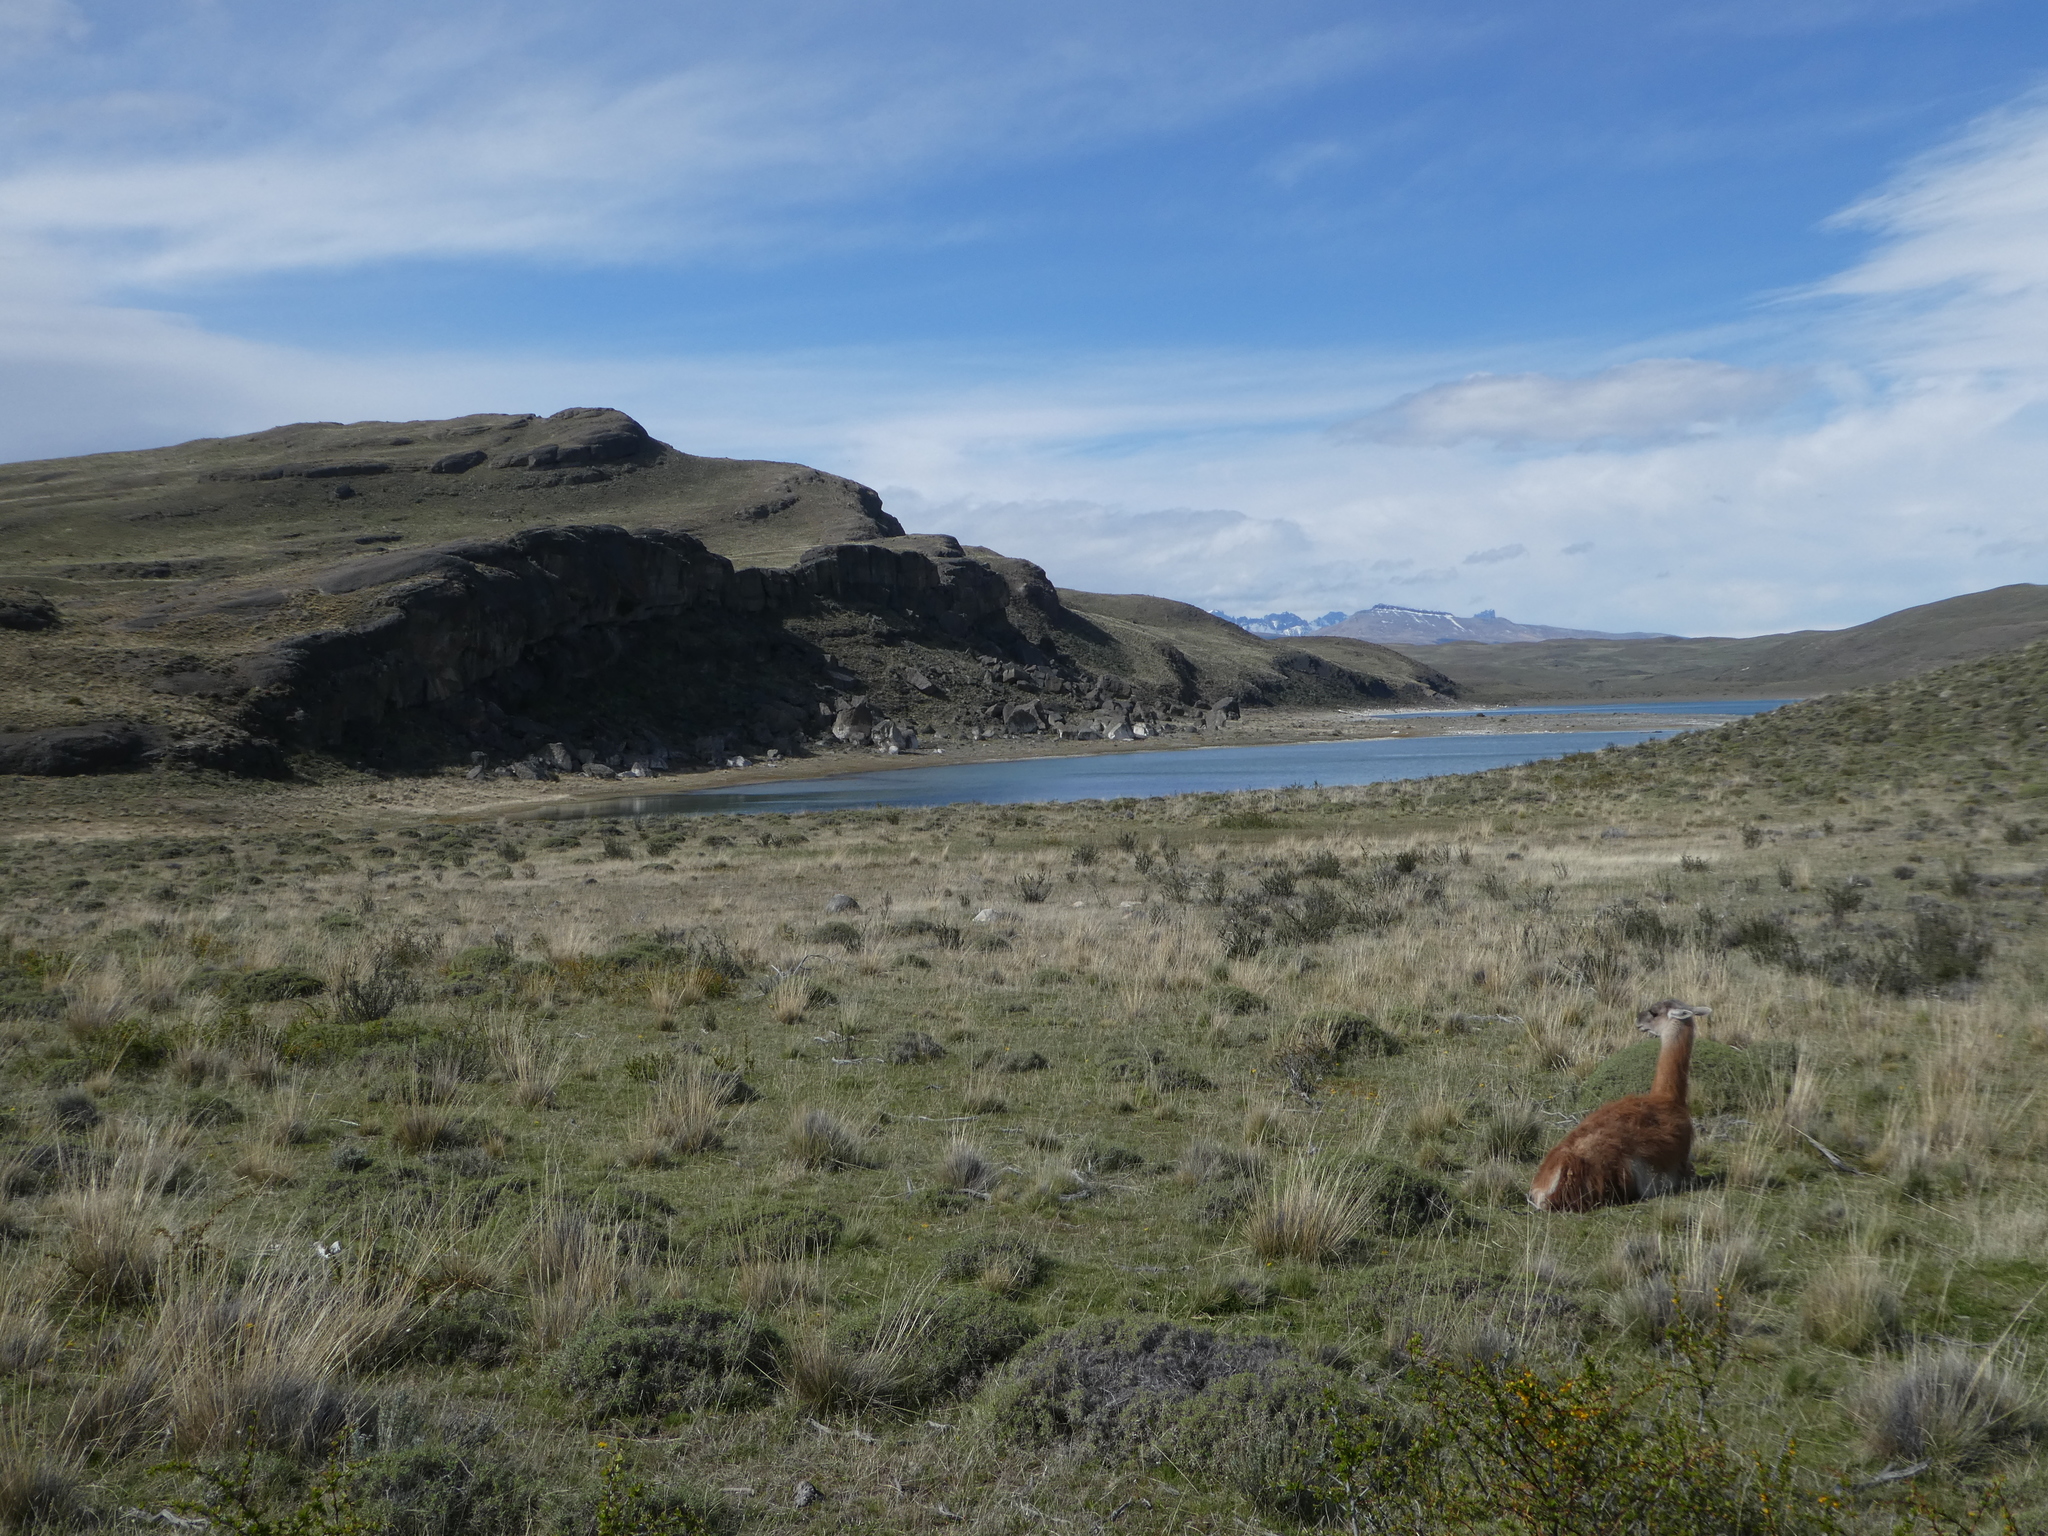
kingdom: Animalia
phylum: Chordata
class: Mammalia
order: Artiodactyla
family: Camelidae
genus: Lama
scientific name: Lama glama
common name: Llama
